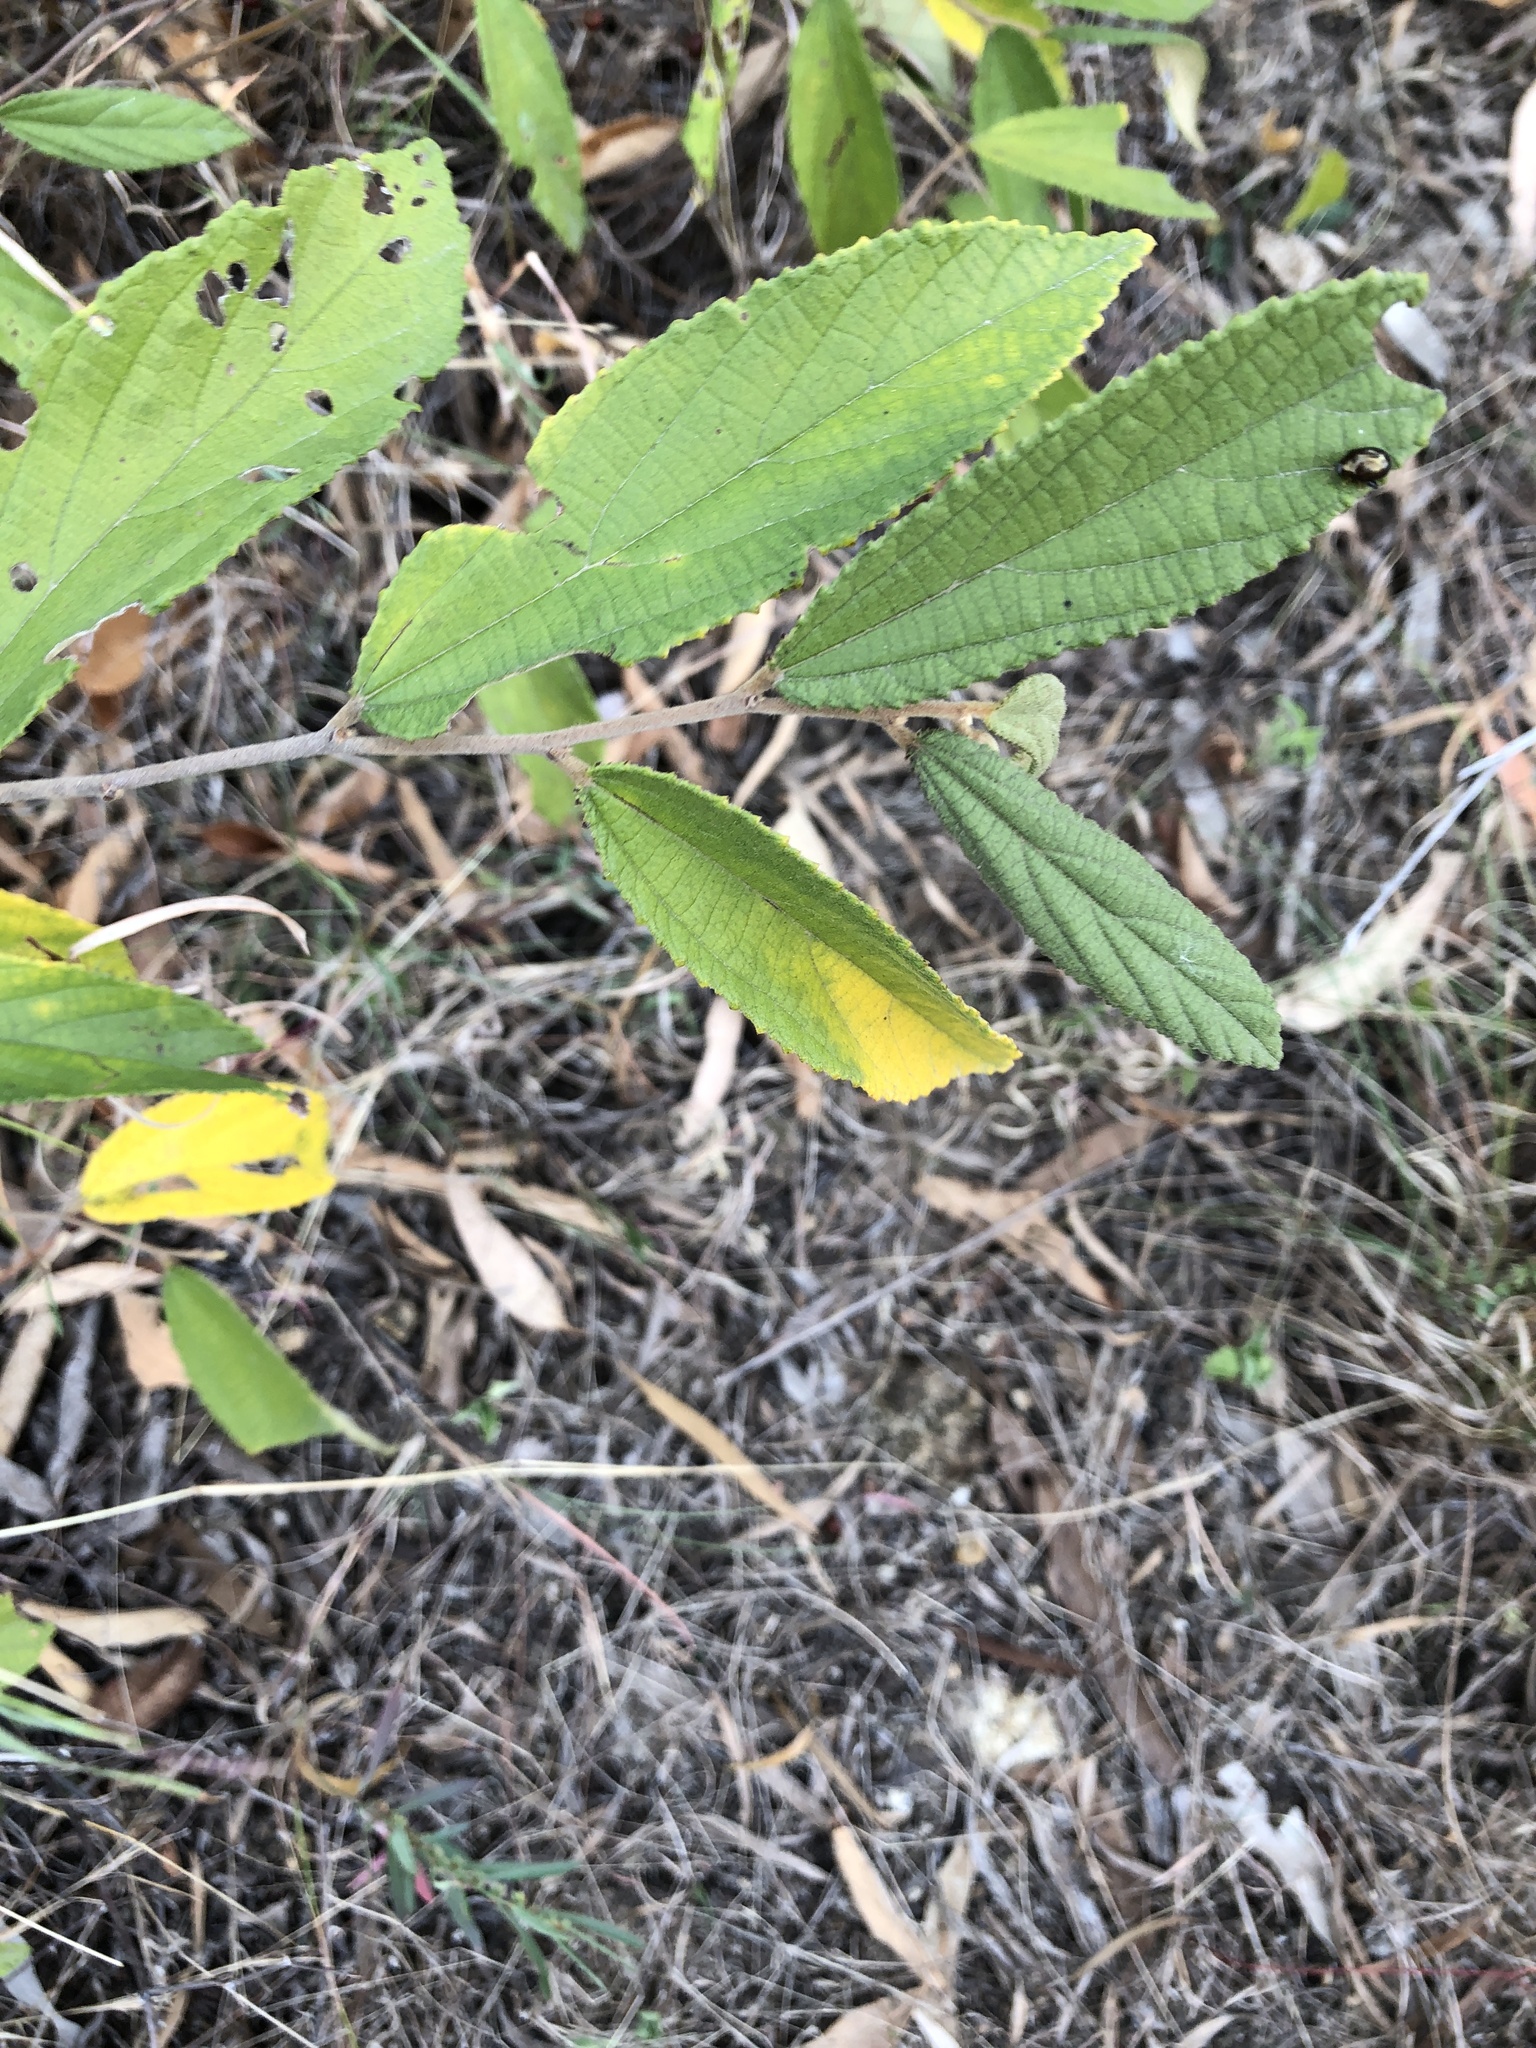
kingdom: Plantae
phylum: Tracheophyta
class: Magnoliopsida
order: Malvales
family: Malvaceae
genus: Grewia
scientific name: Grewia savannicola
